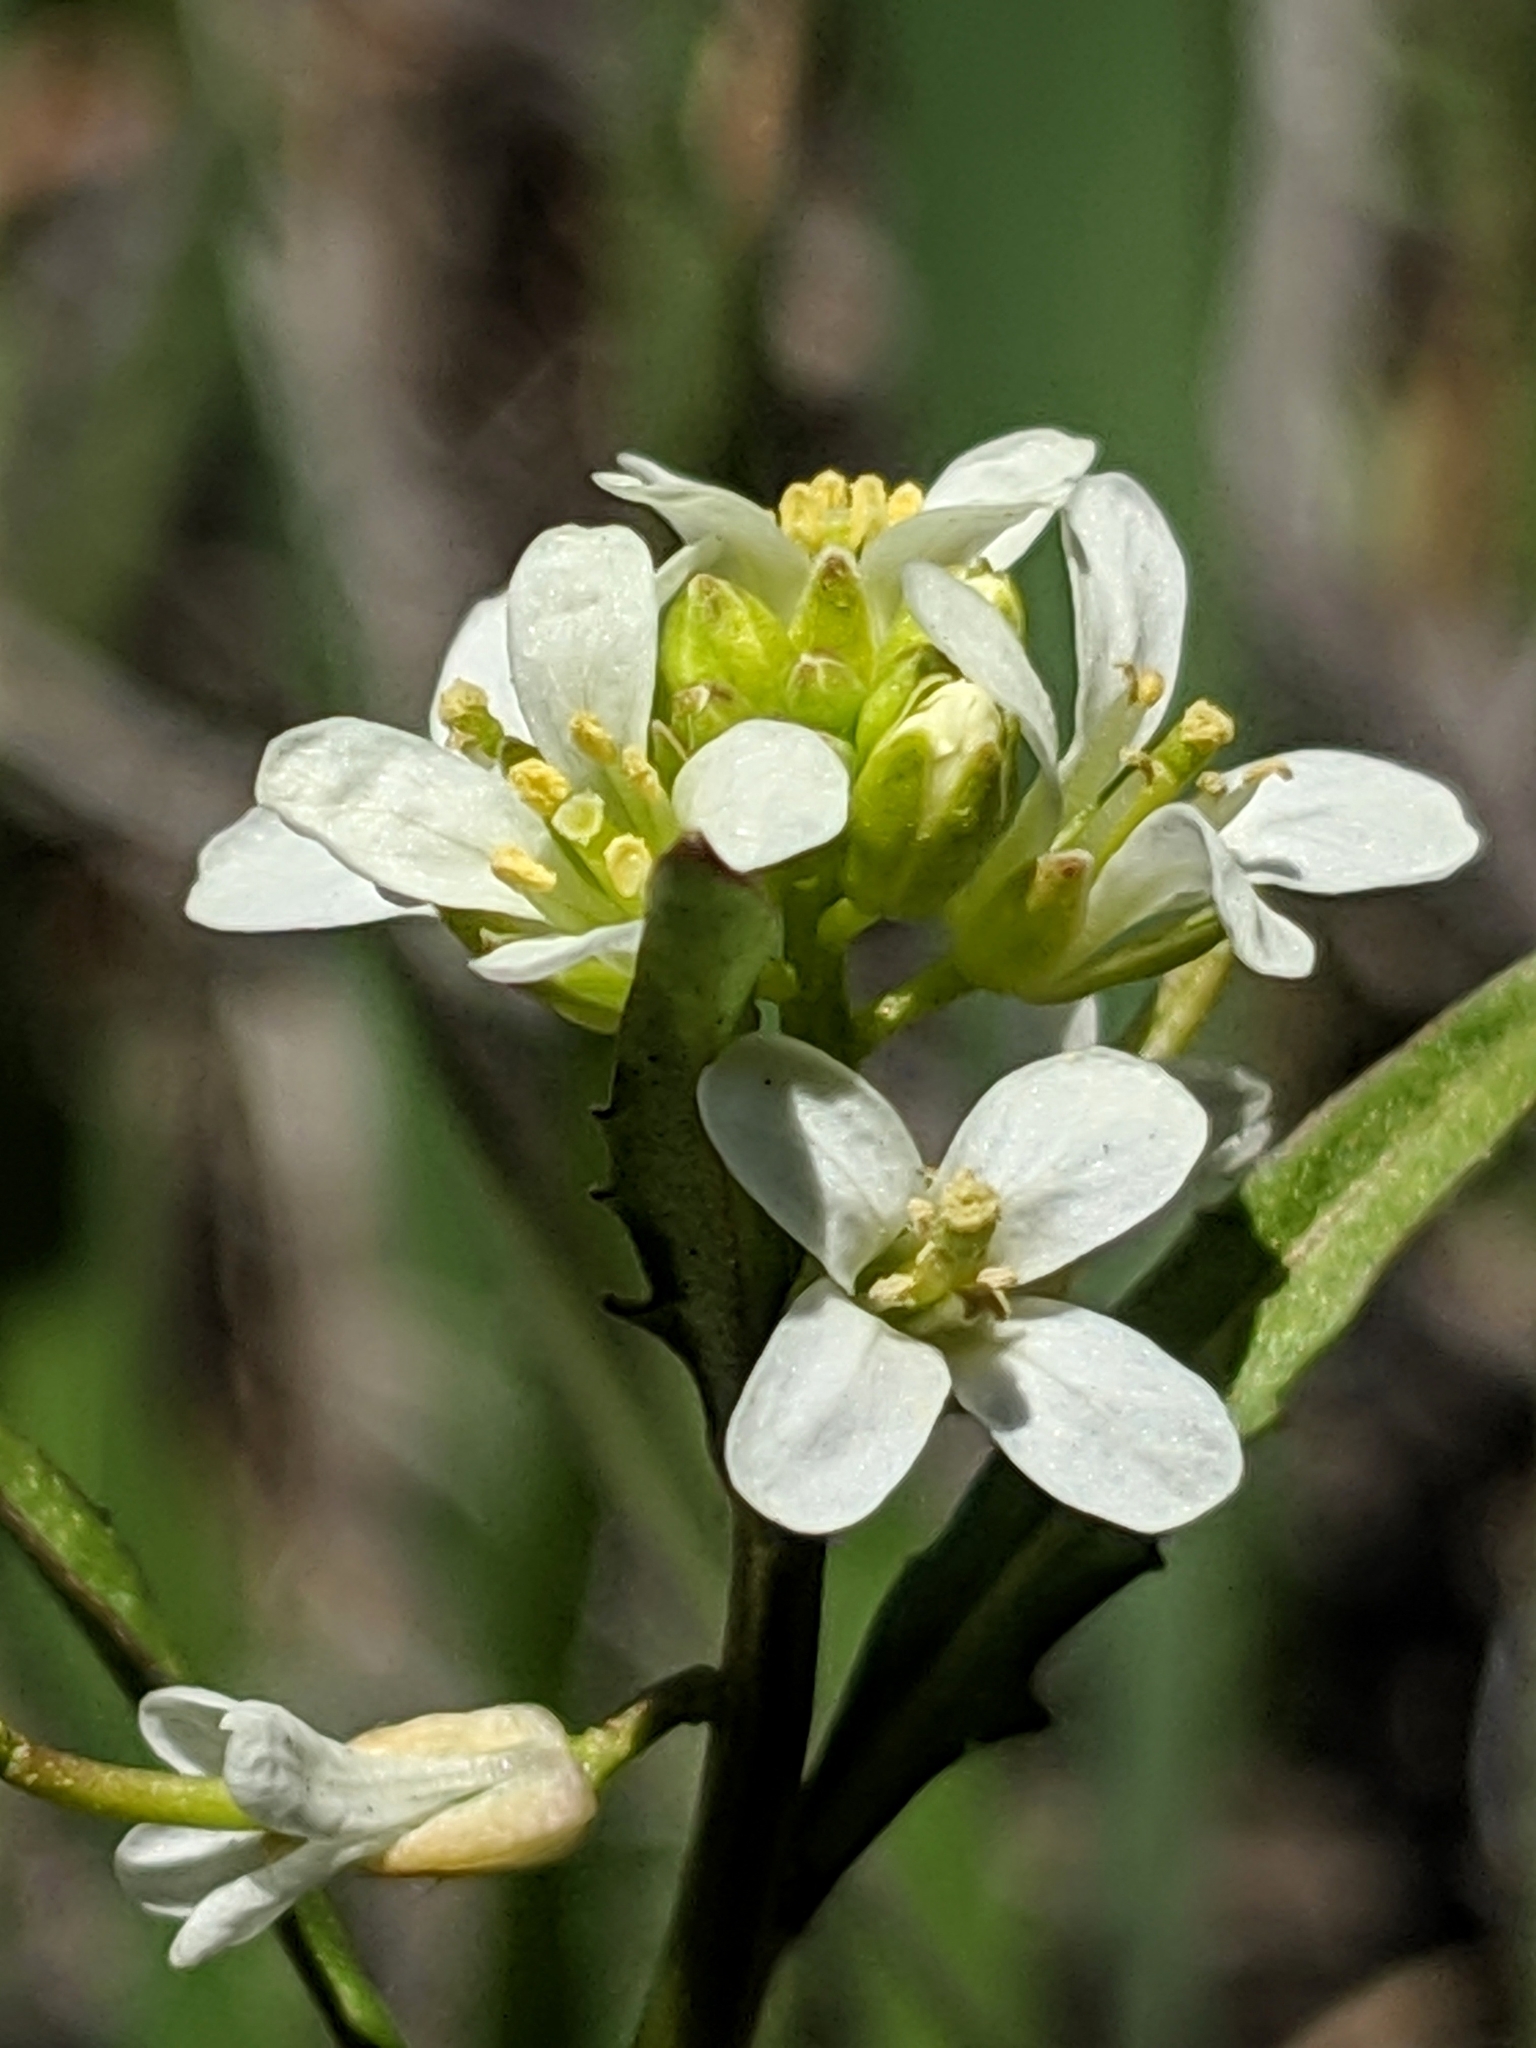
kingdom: Plantae
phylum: Tracheophyta
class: Magnoliopsida
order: Brassicales
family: Brassicaceae
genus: Streptanthus
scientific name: Streptanthus lasiophyllus
